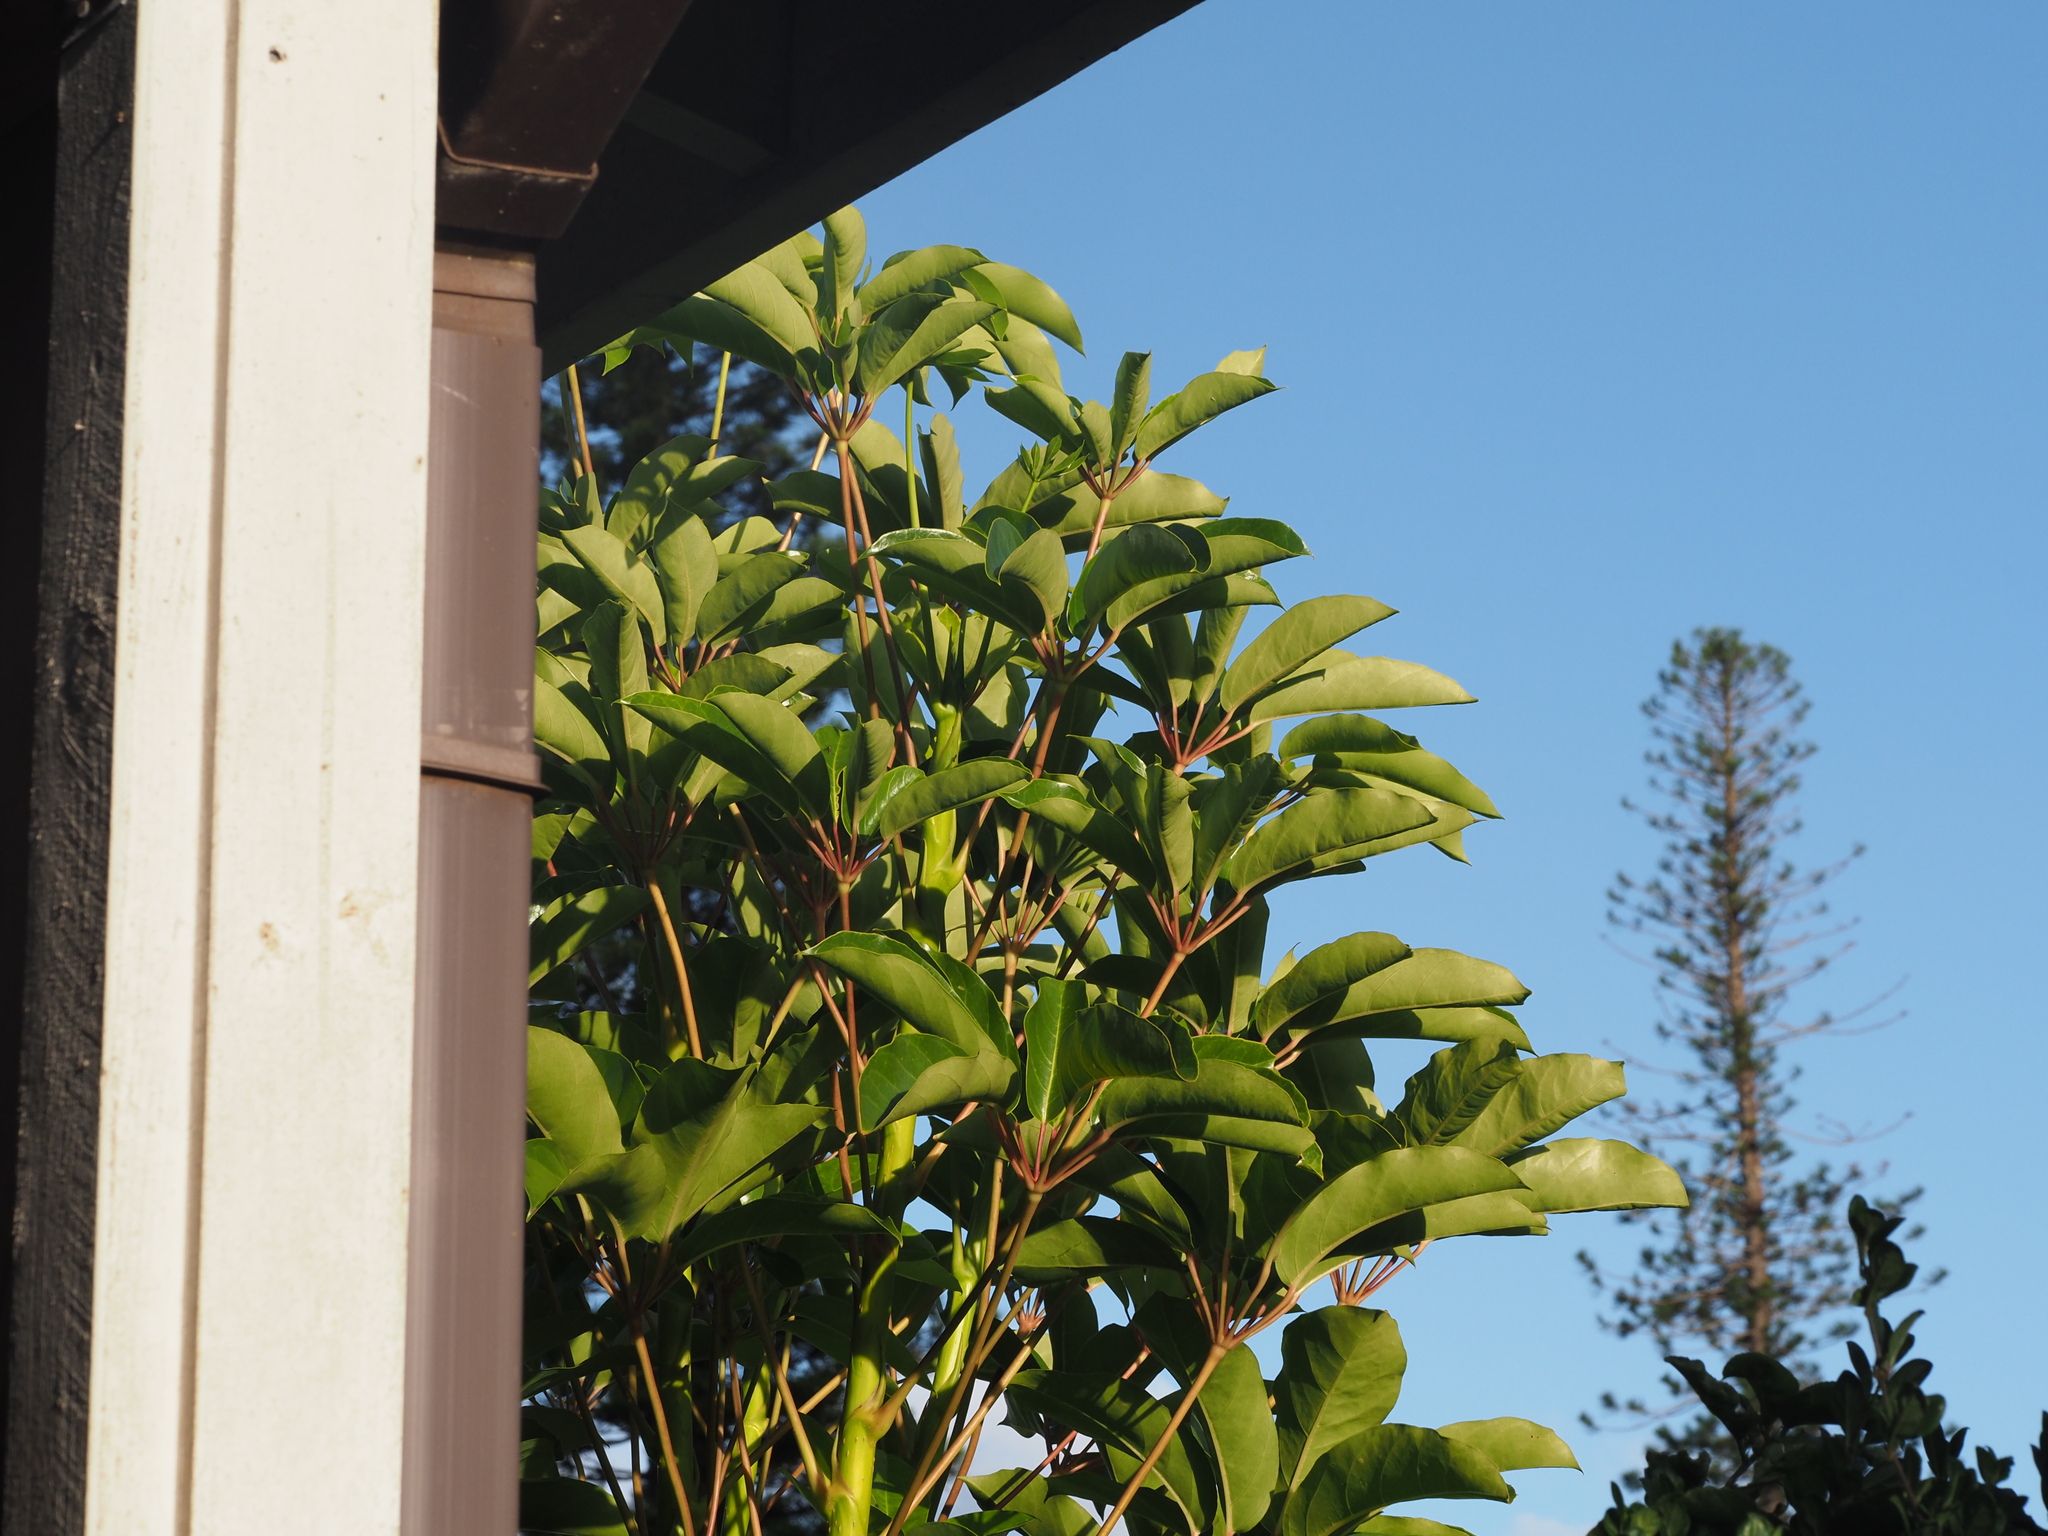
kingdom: Plantae
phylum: Tracheophyta
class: Magnoliopsida
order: Apiales
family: Araliaceae
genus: Heptapleurum
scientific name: Heptapleurum heptaphyllum
